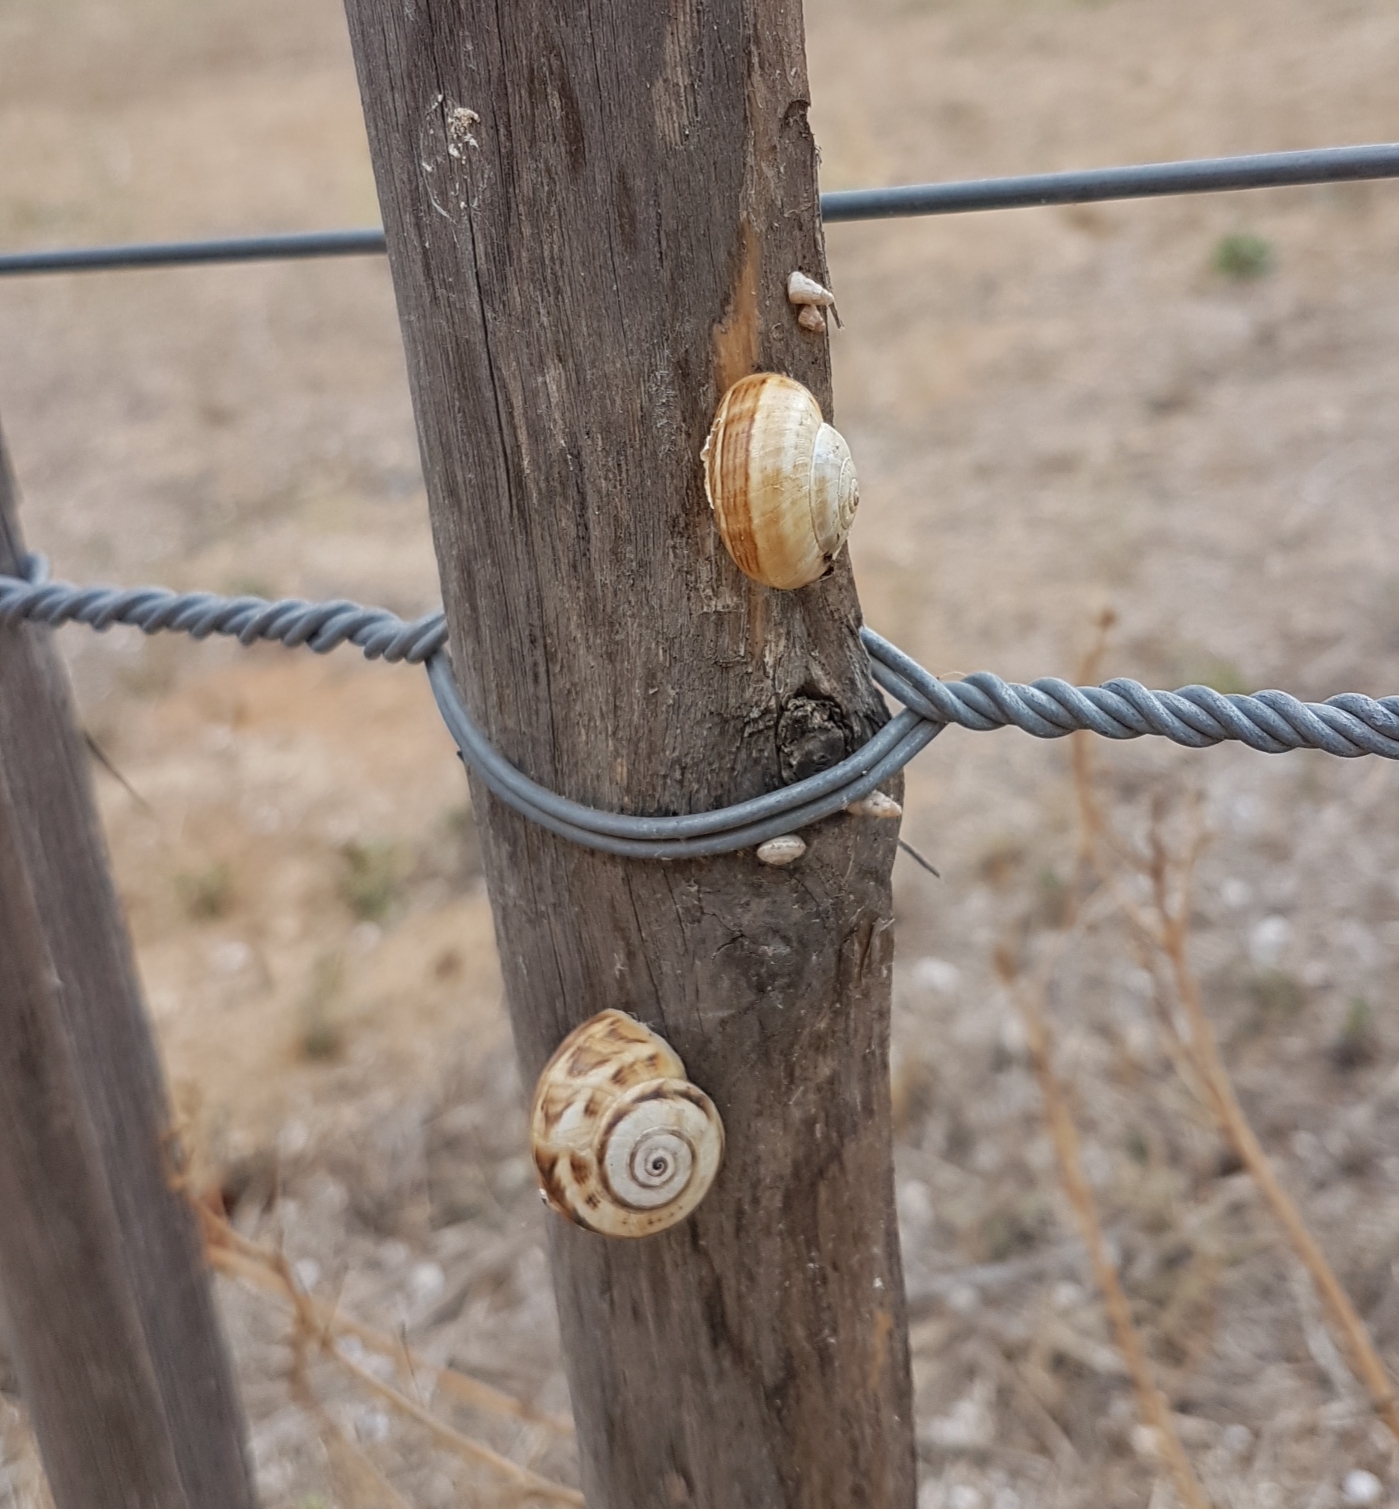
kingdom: Animalia
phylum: Mollusca
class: Gastropoda
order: Stylommatophora
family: Helicidae
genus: Theba
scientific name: Theba pisana
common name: White snail
